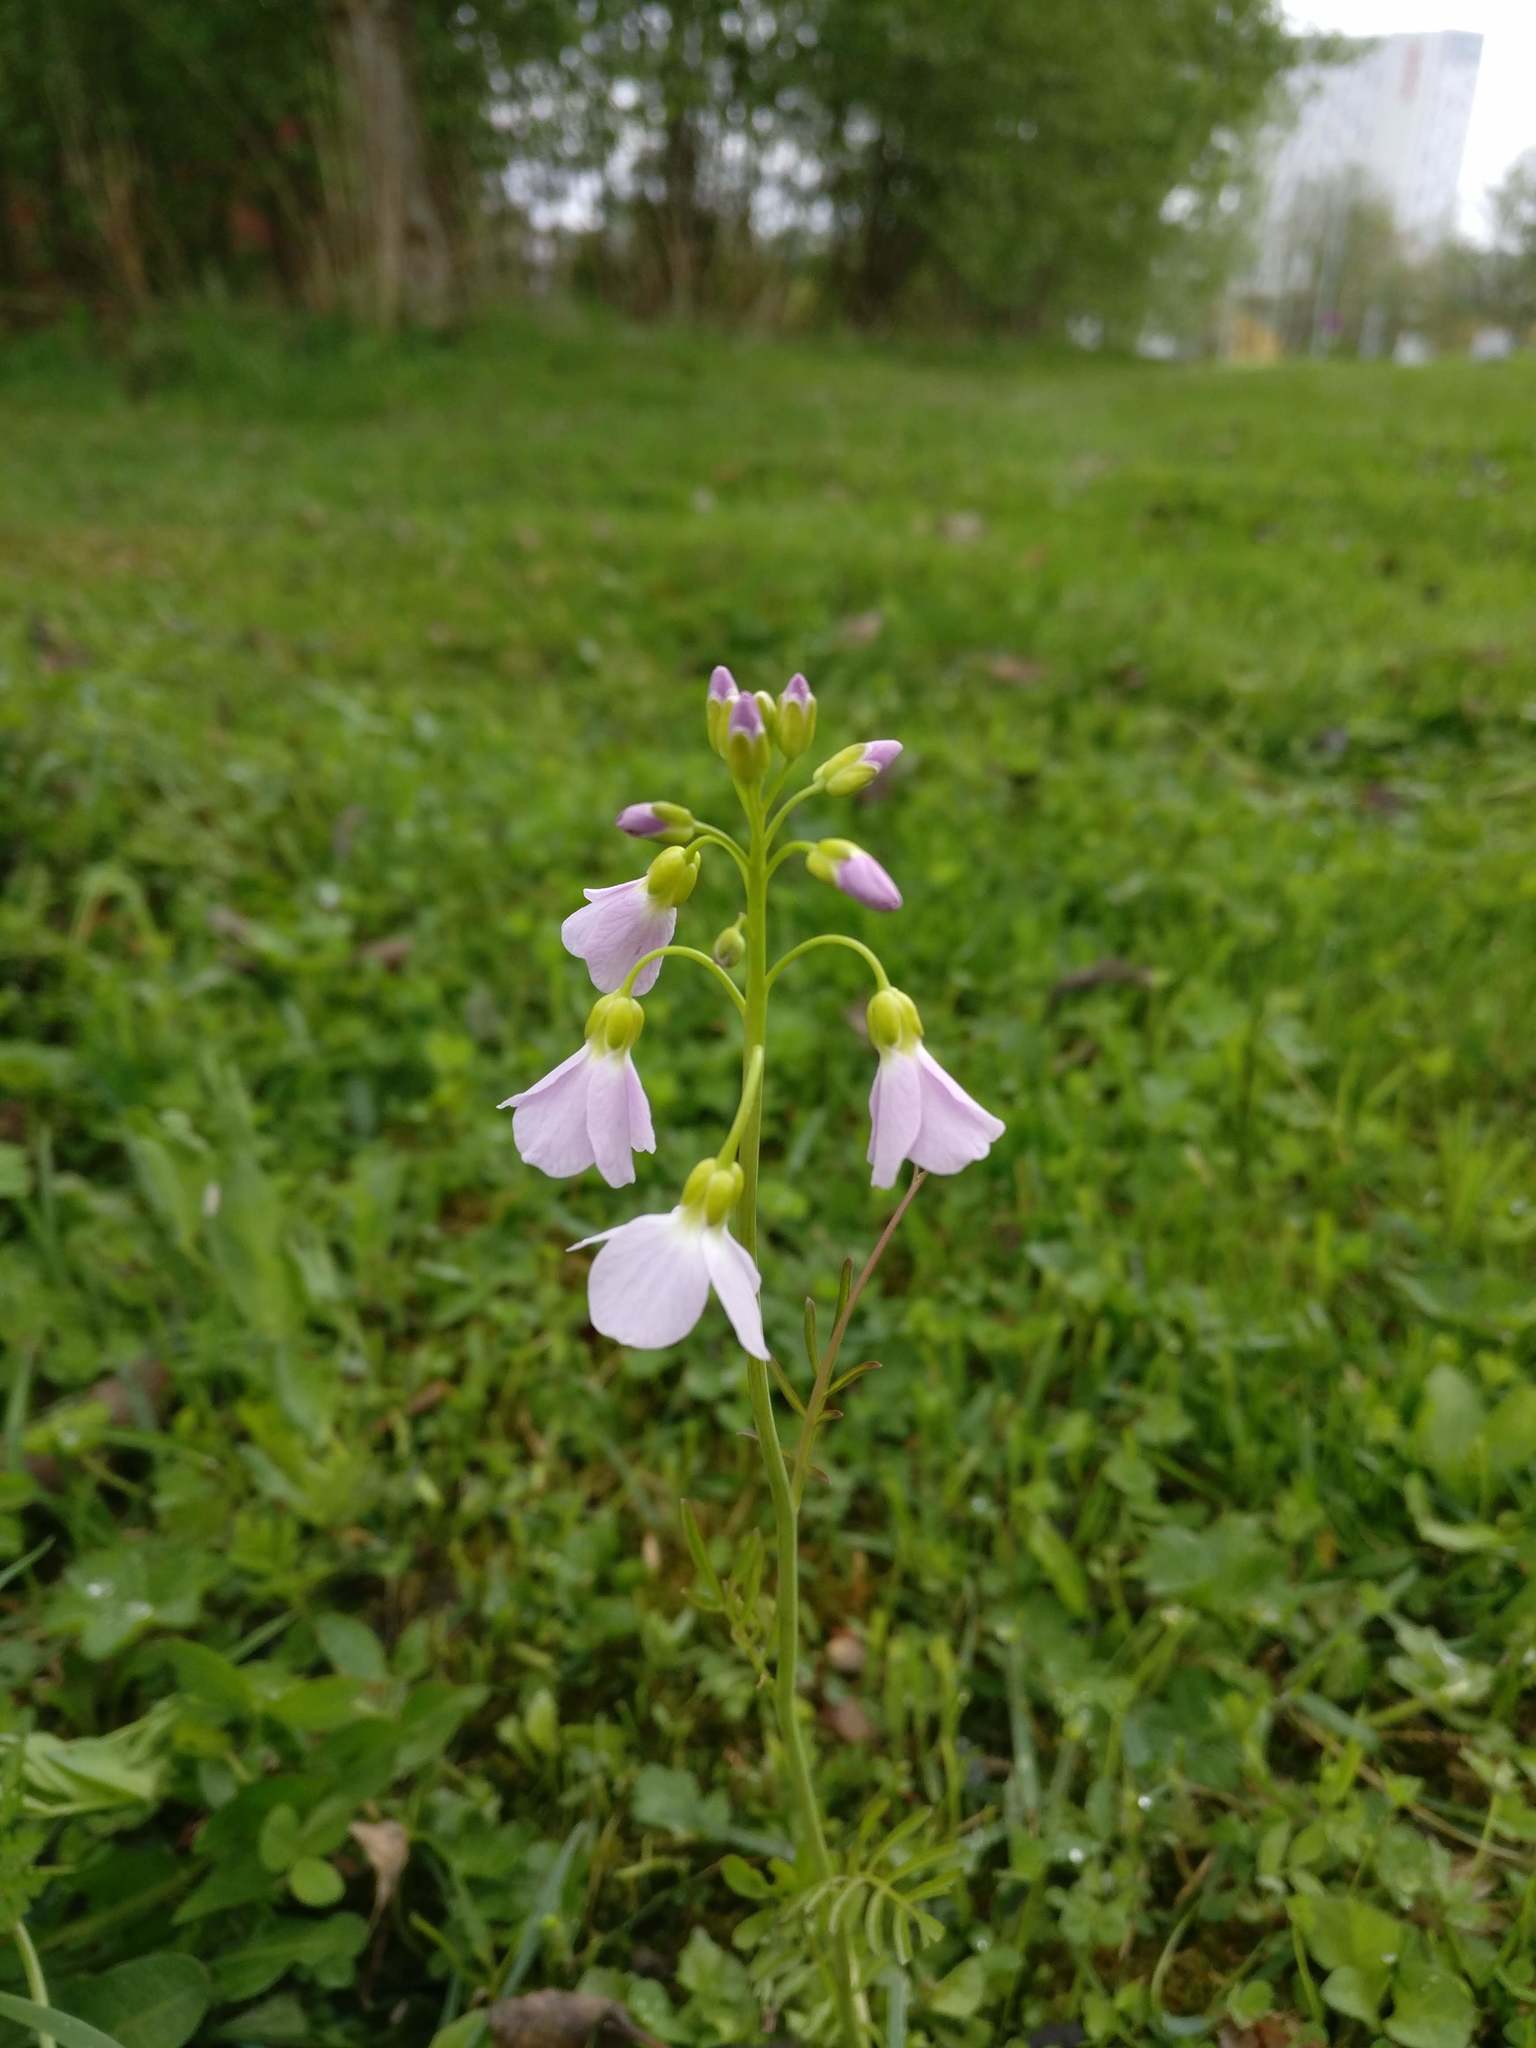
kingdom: Plantae
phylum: Tracheophyta
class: Magnoliopsida
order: Brassicales
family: Brassicaceae
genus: Cardamine
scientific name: Cardamine pratensis
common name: Cuckoo flower
